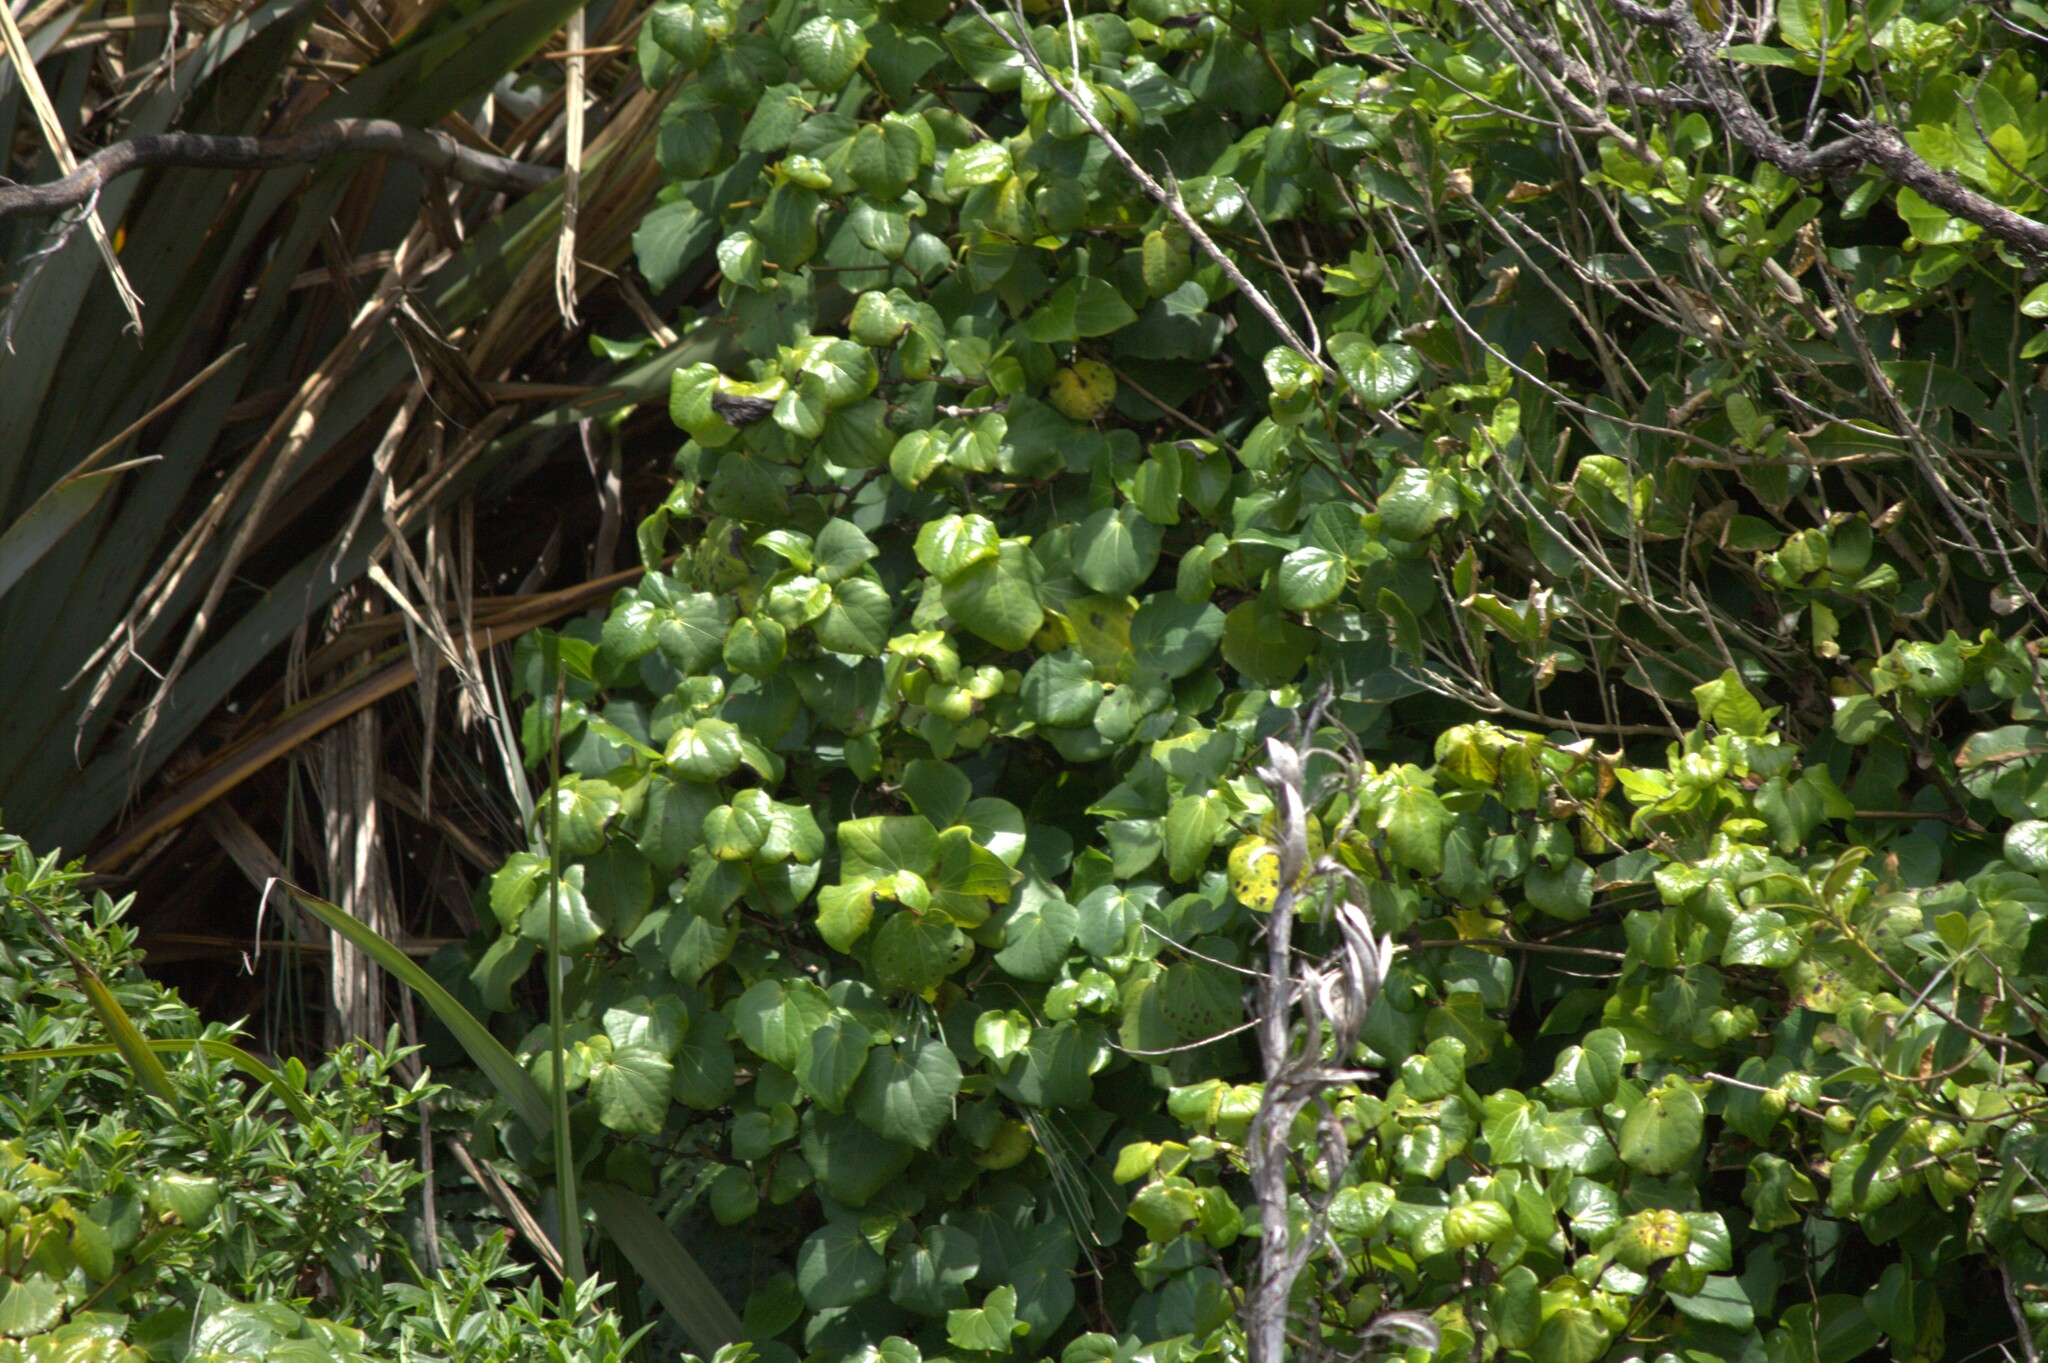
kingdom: Plantae
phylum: Tracheophyta
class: Magnoliopsida
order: Piperales
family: Piperaceae
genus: Macropiper
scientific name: Macropiper excelsum
